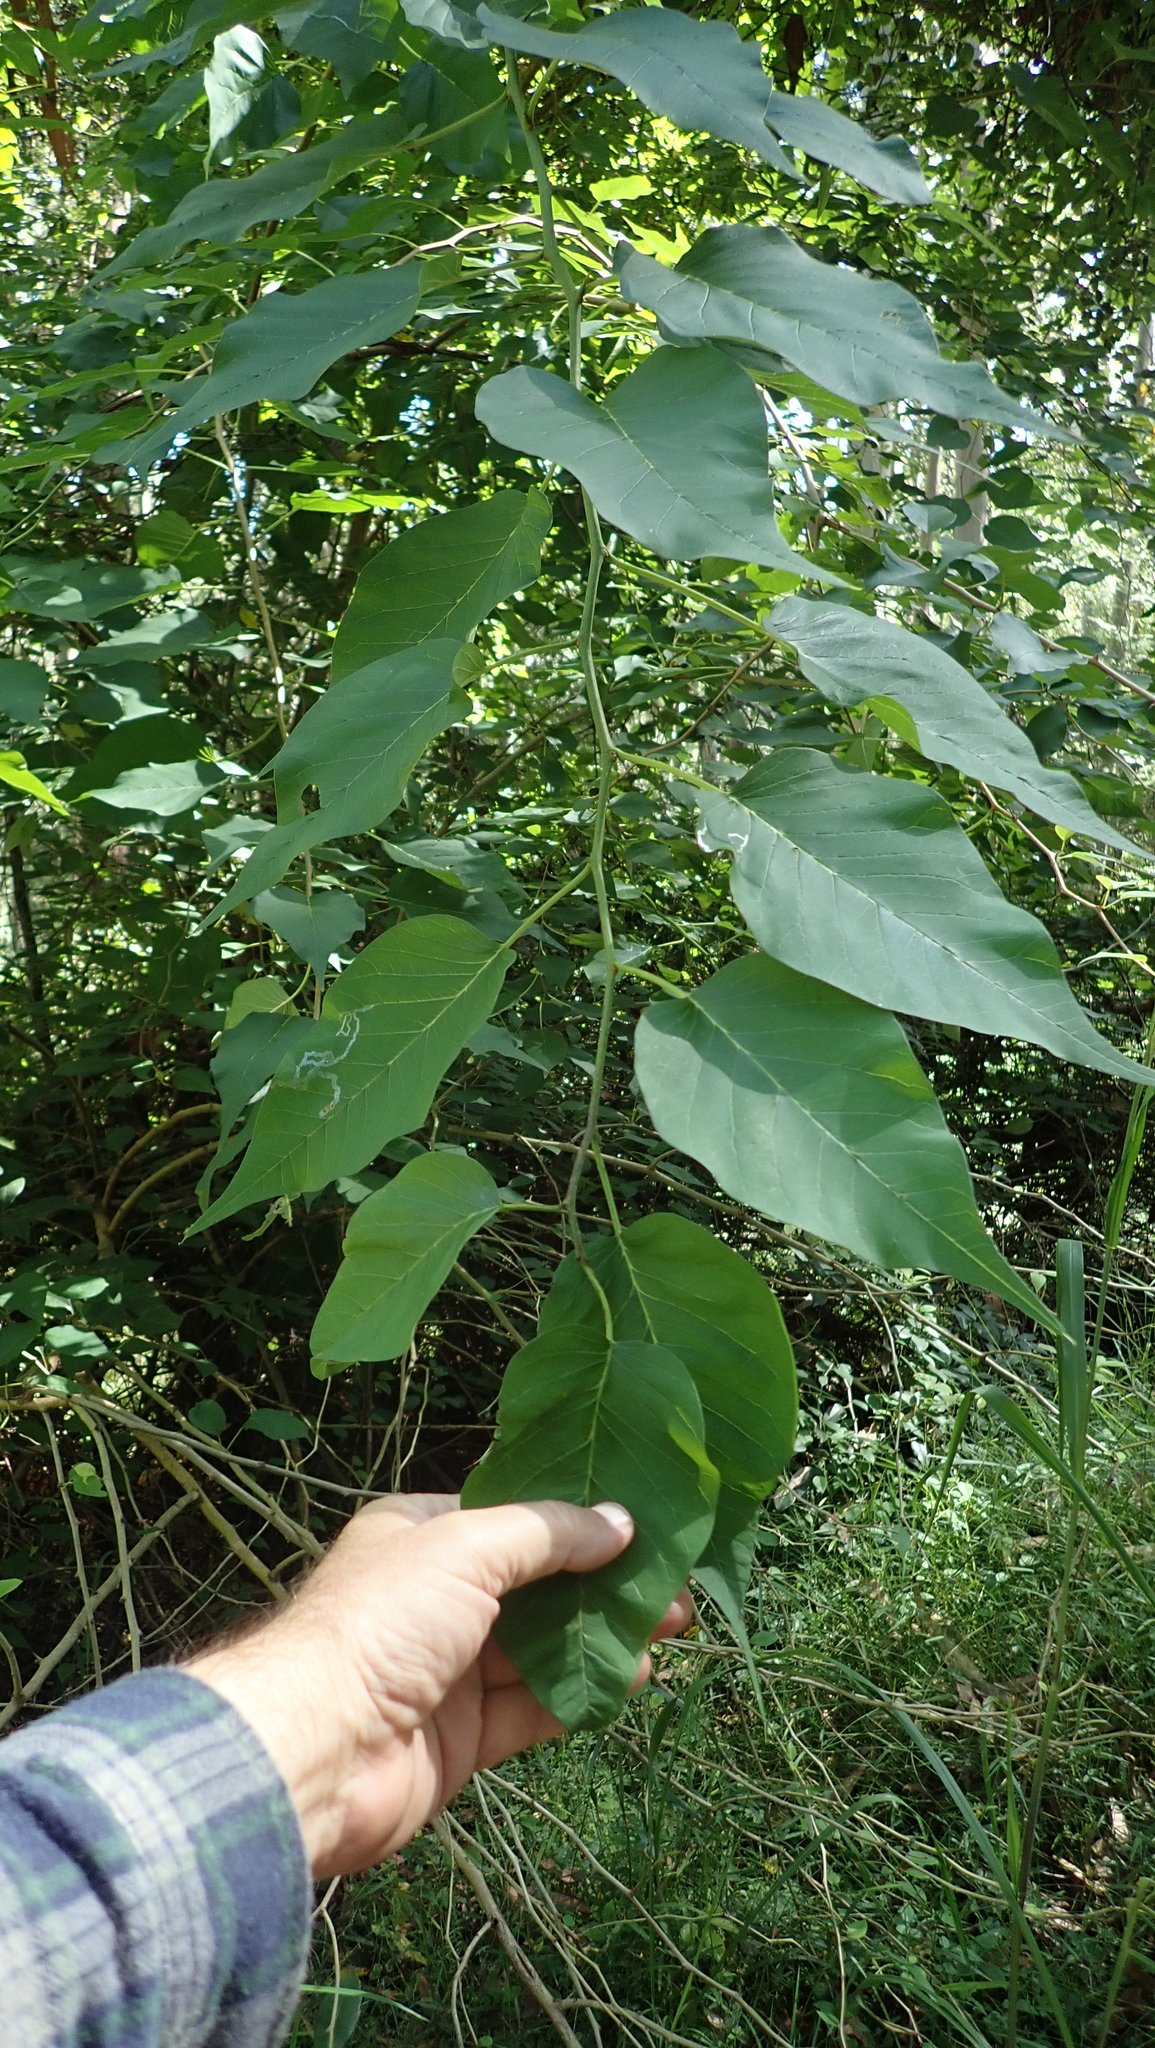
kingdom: Plantae
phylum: Tracheophyta
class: Magnoliopsida
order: Rosales
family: Moraceae
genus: Maclura
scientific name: Maclura pomifera
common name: Osage-orange
